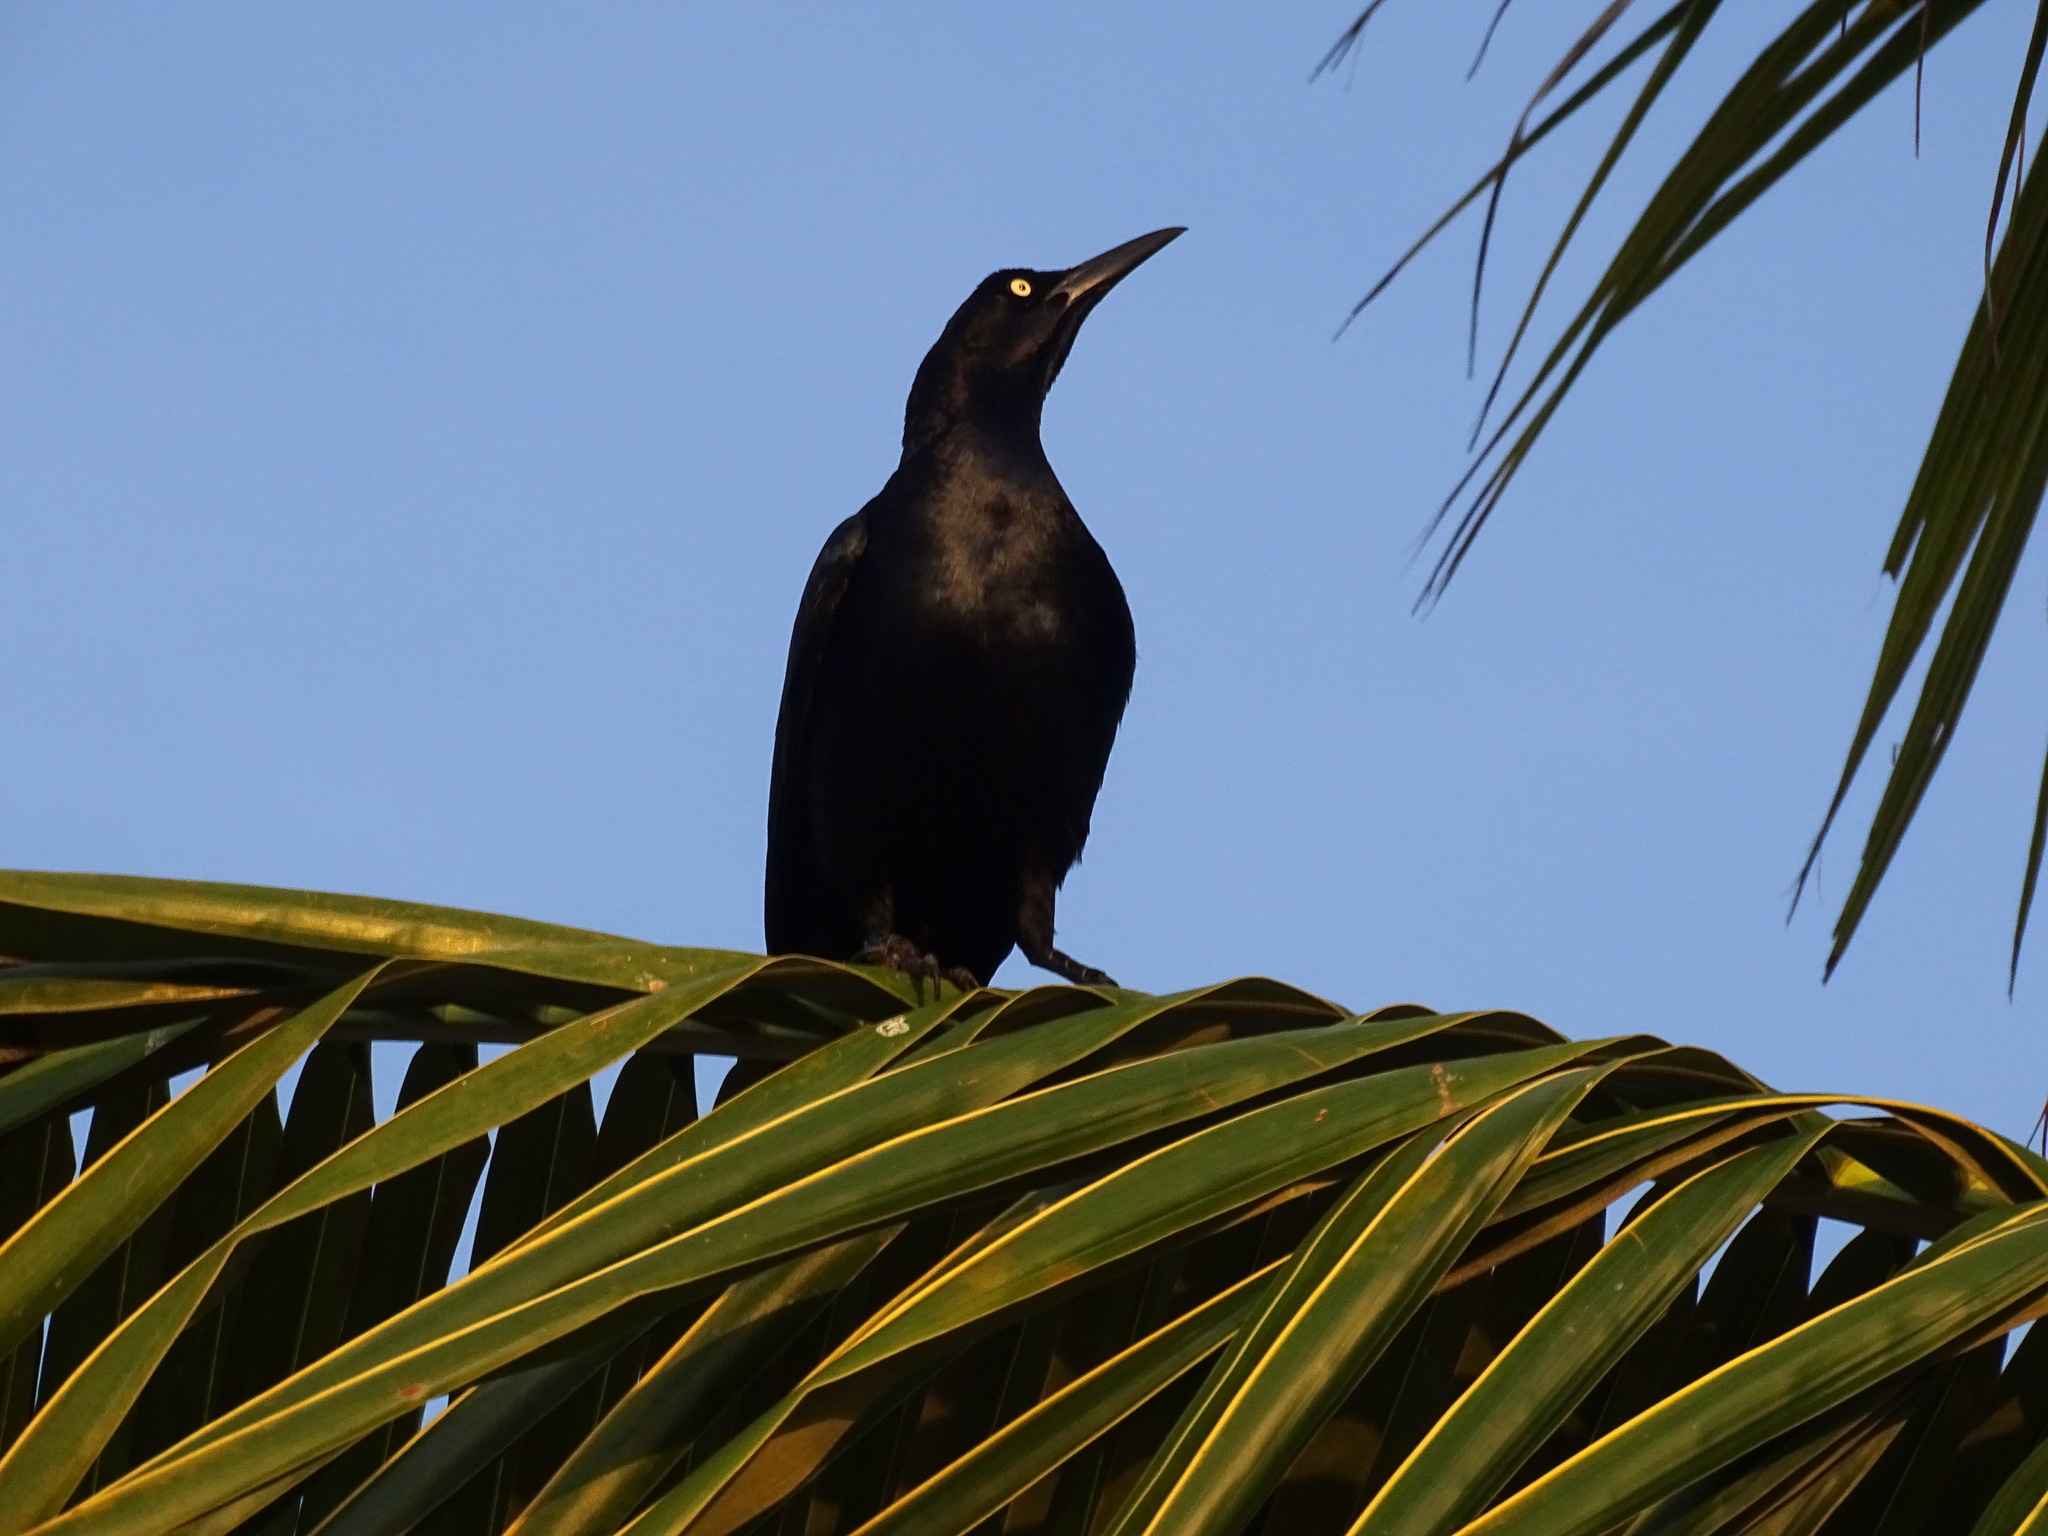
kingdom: Animalia
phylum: Chordata
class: Aves
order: Passeriformes
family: Icteridae
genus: Quiscalus
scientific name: Quiscalus mexicanus
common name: Great-tailed grackle
